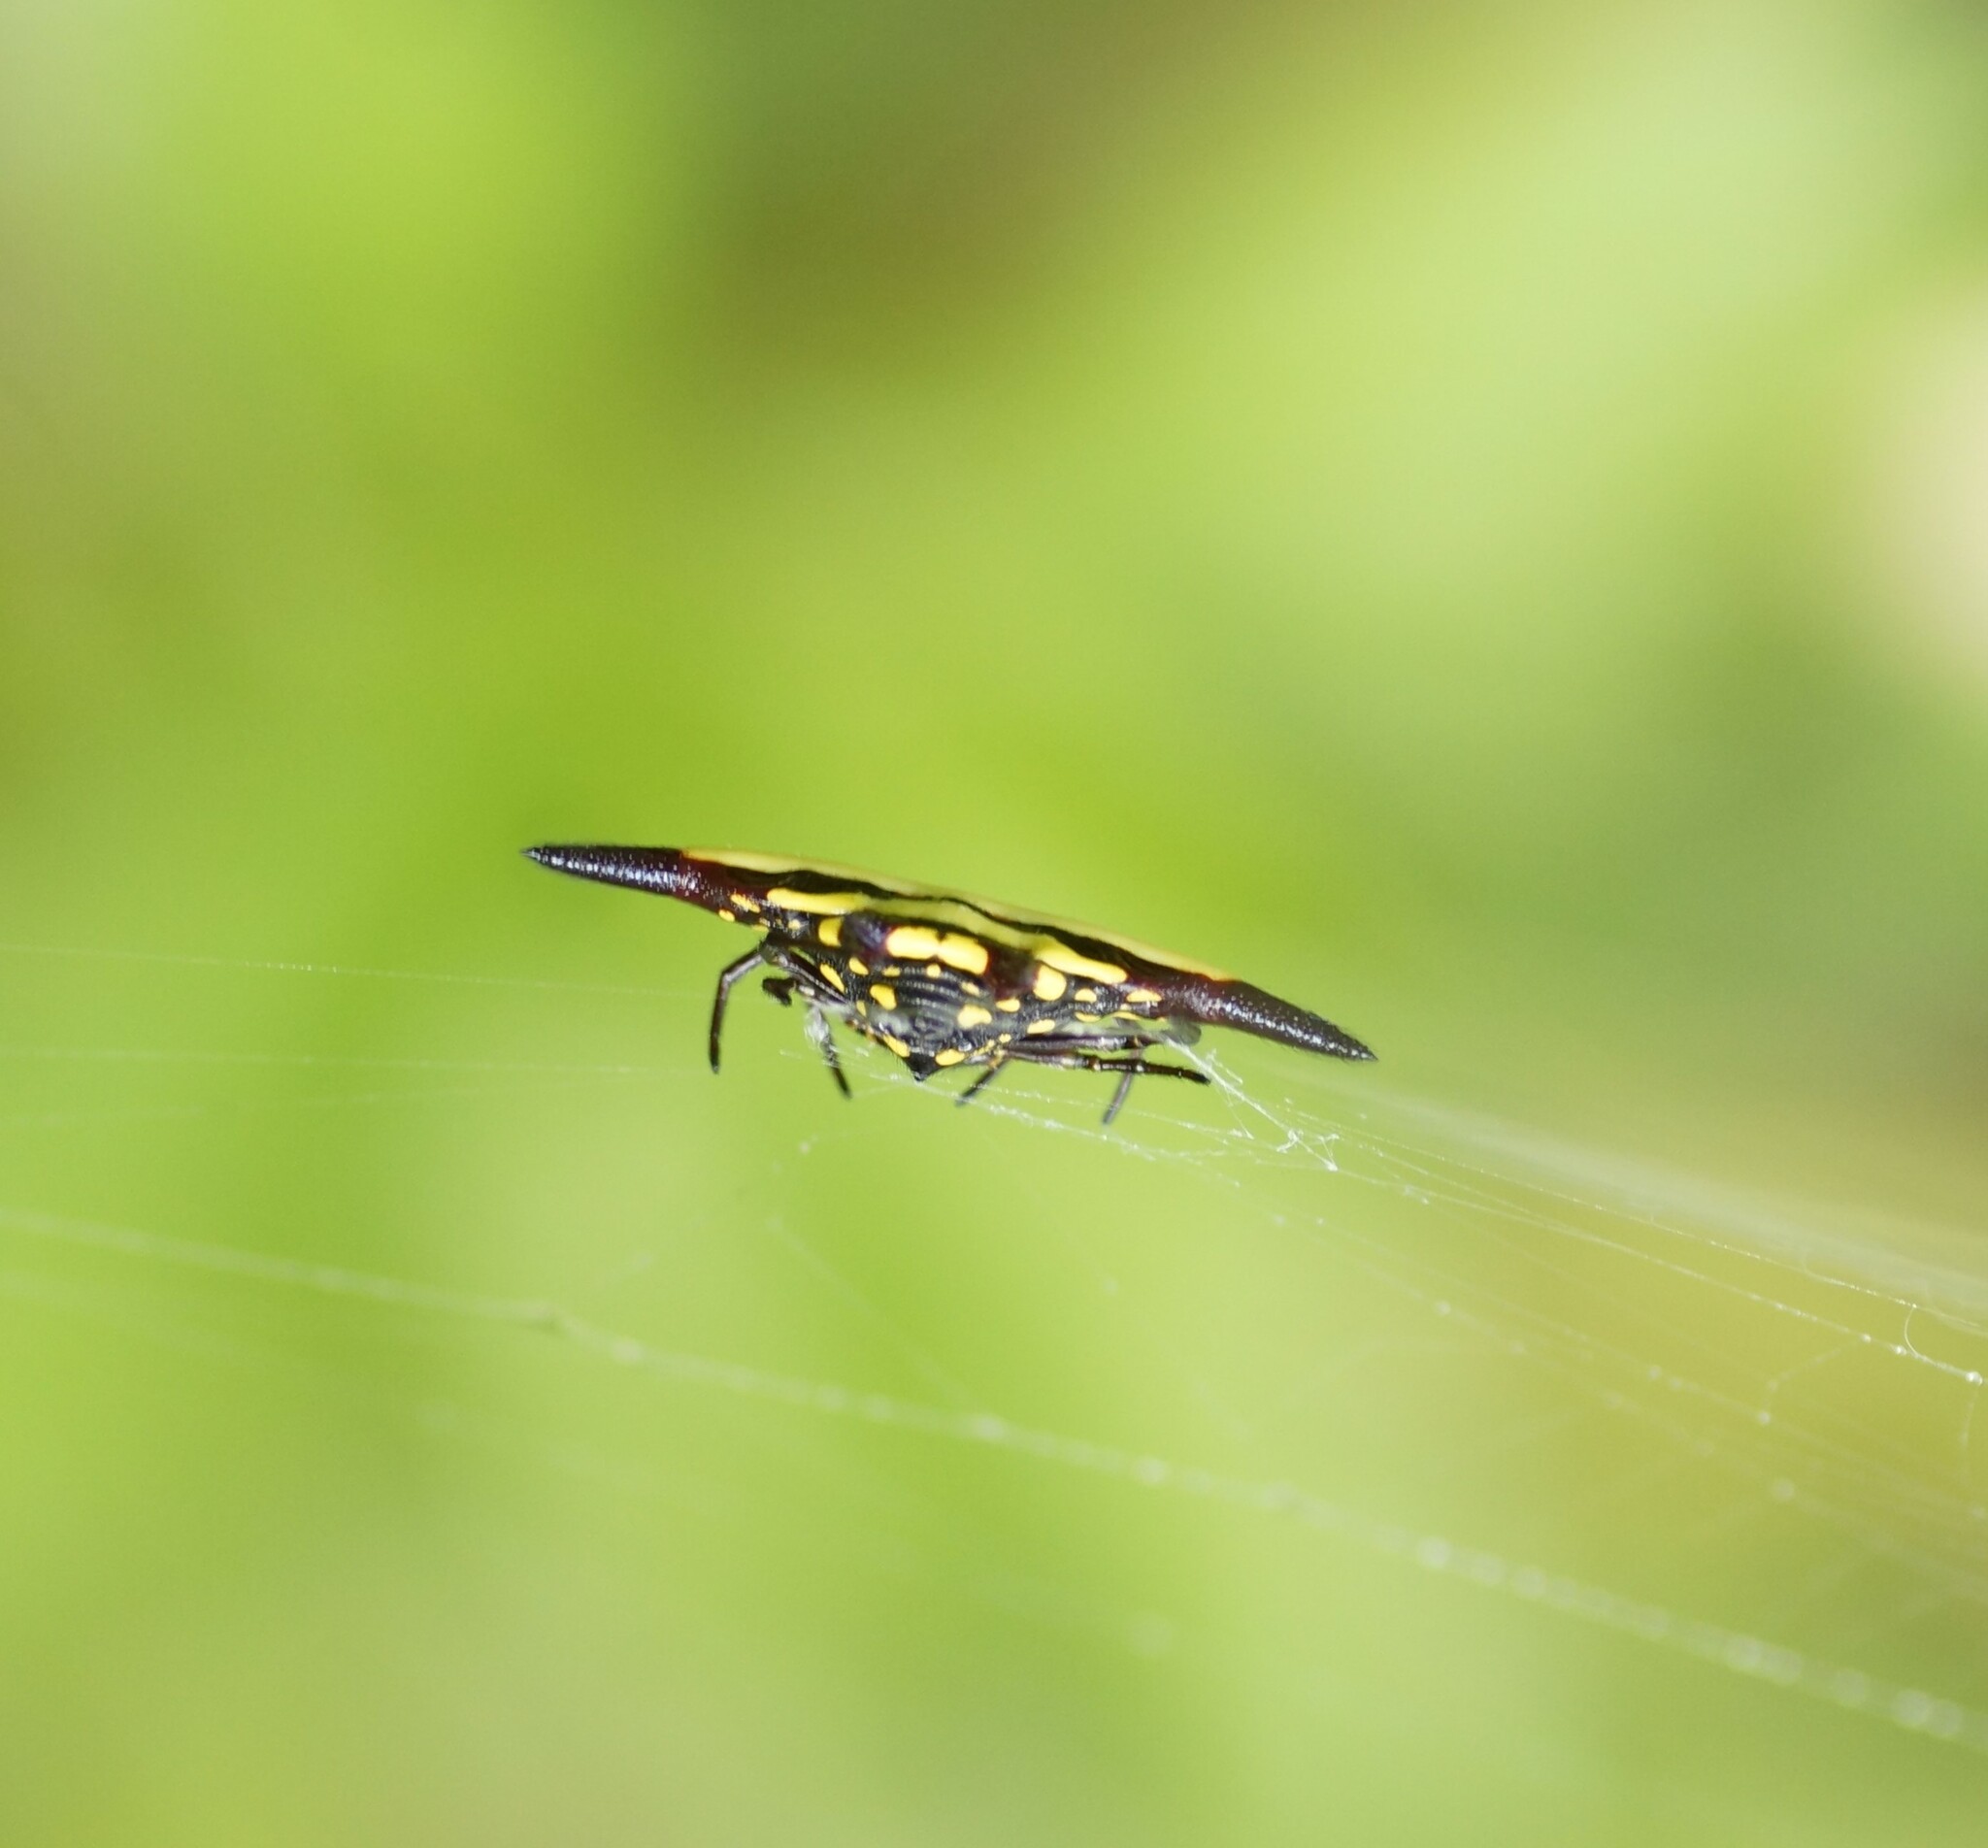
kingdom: Animalia
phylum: Arthropoda
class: Arachnida
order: Araneae
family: Araneidae
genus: Gasteracantha
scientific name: Gasteracantha fornicata
